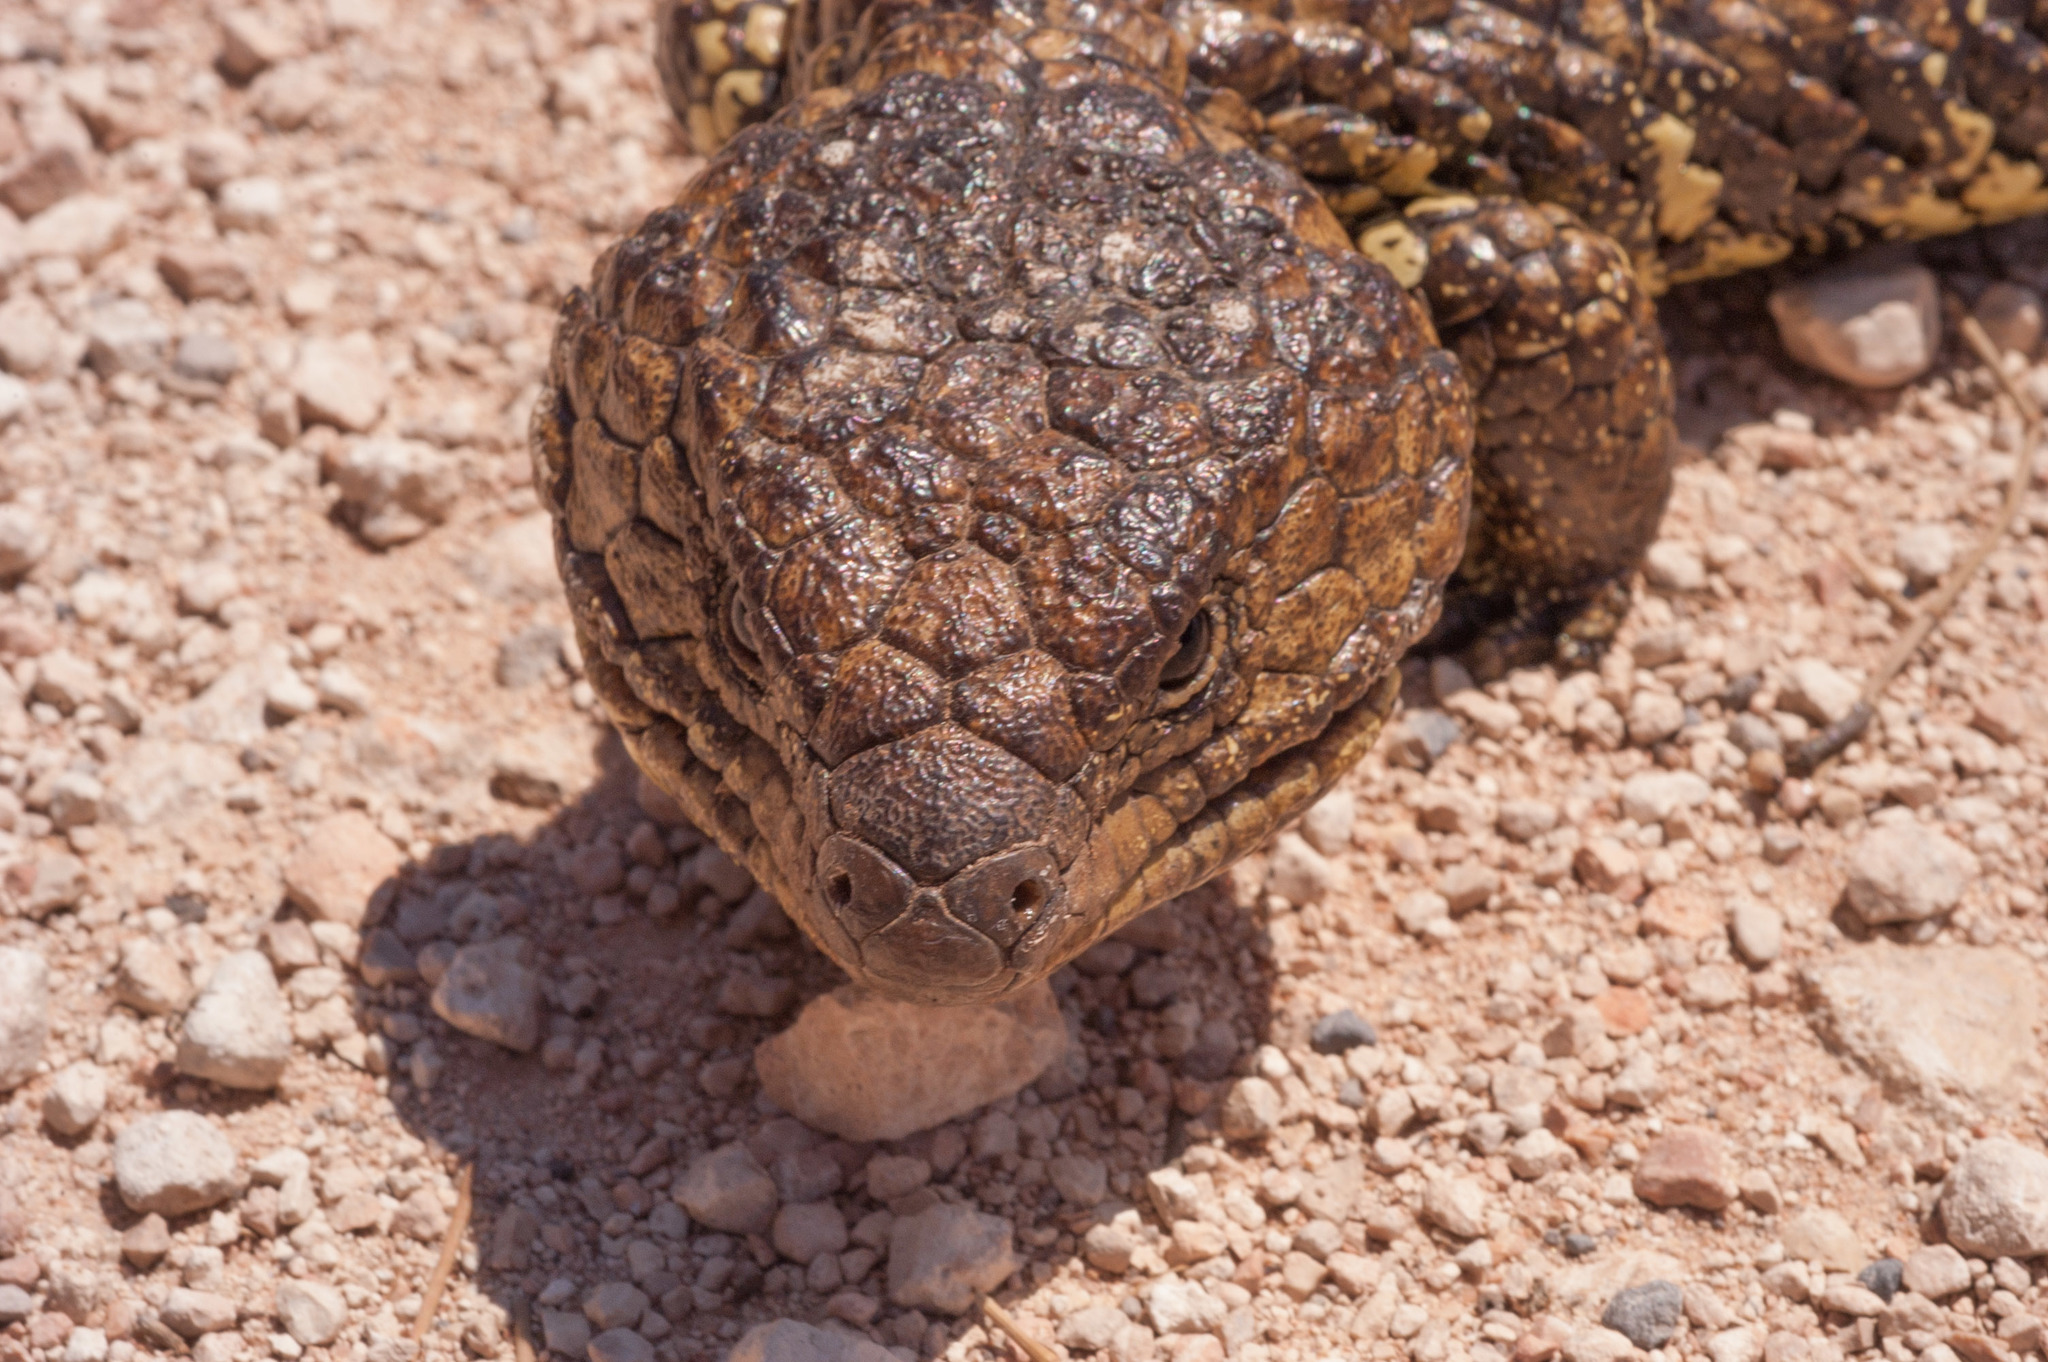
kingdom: Animalia
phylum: Chordata
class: Squamata
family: Scincidae
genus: Tiliqua
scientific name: Tiliqua rugosa
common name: Pinecone lizard
